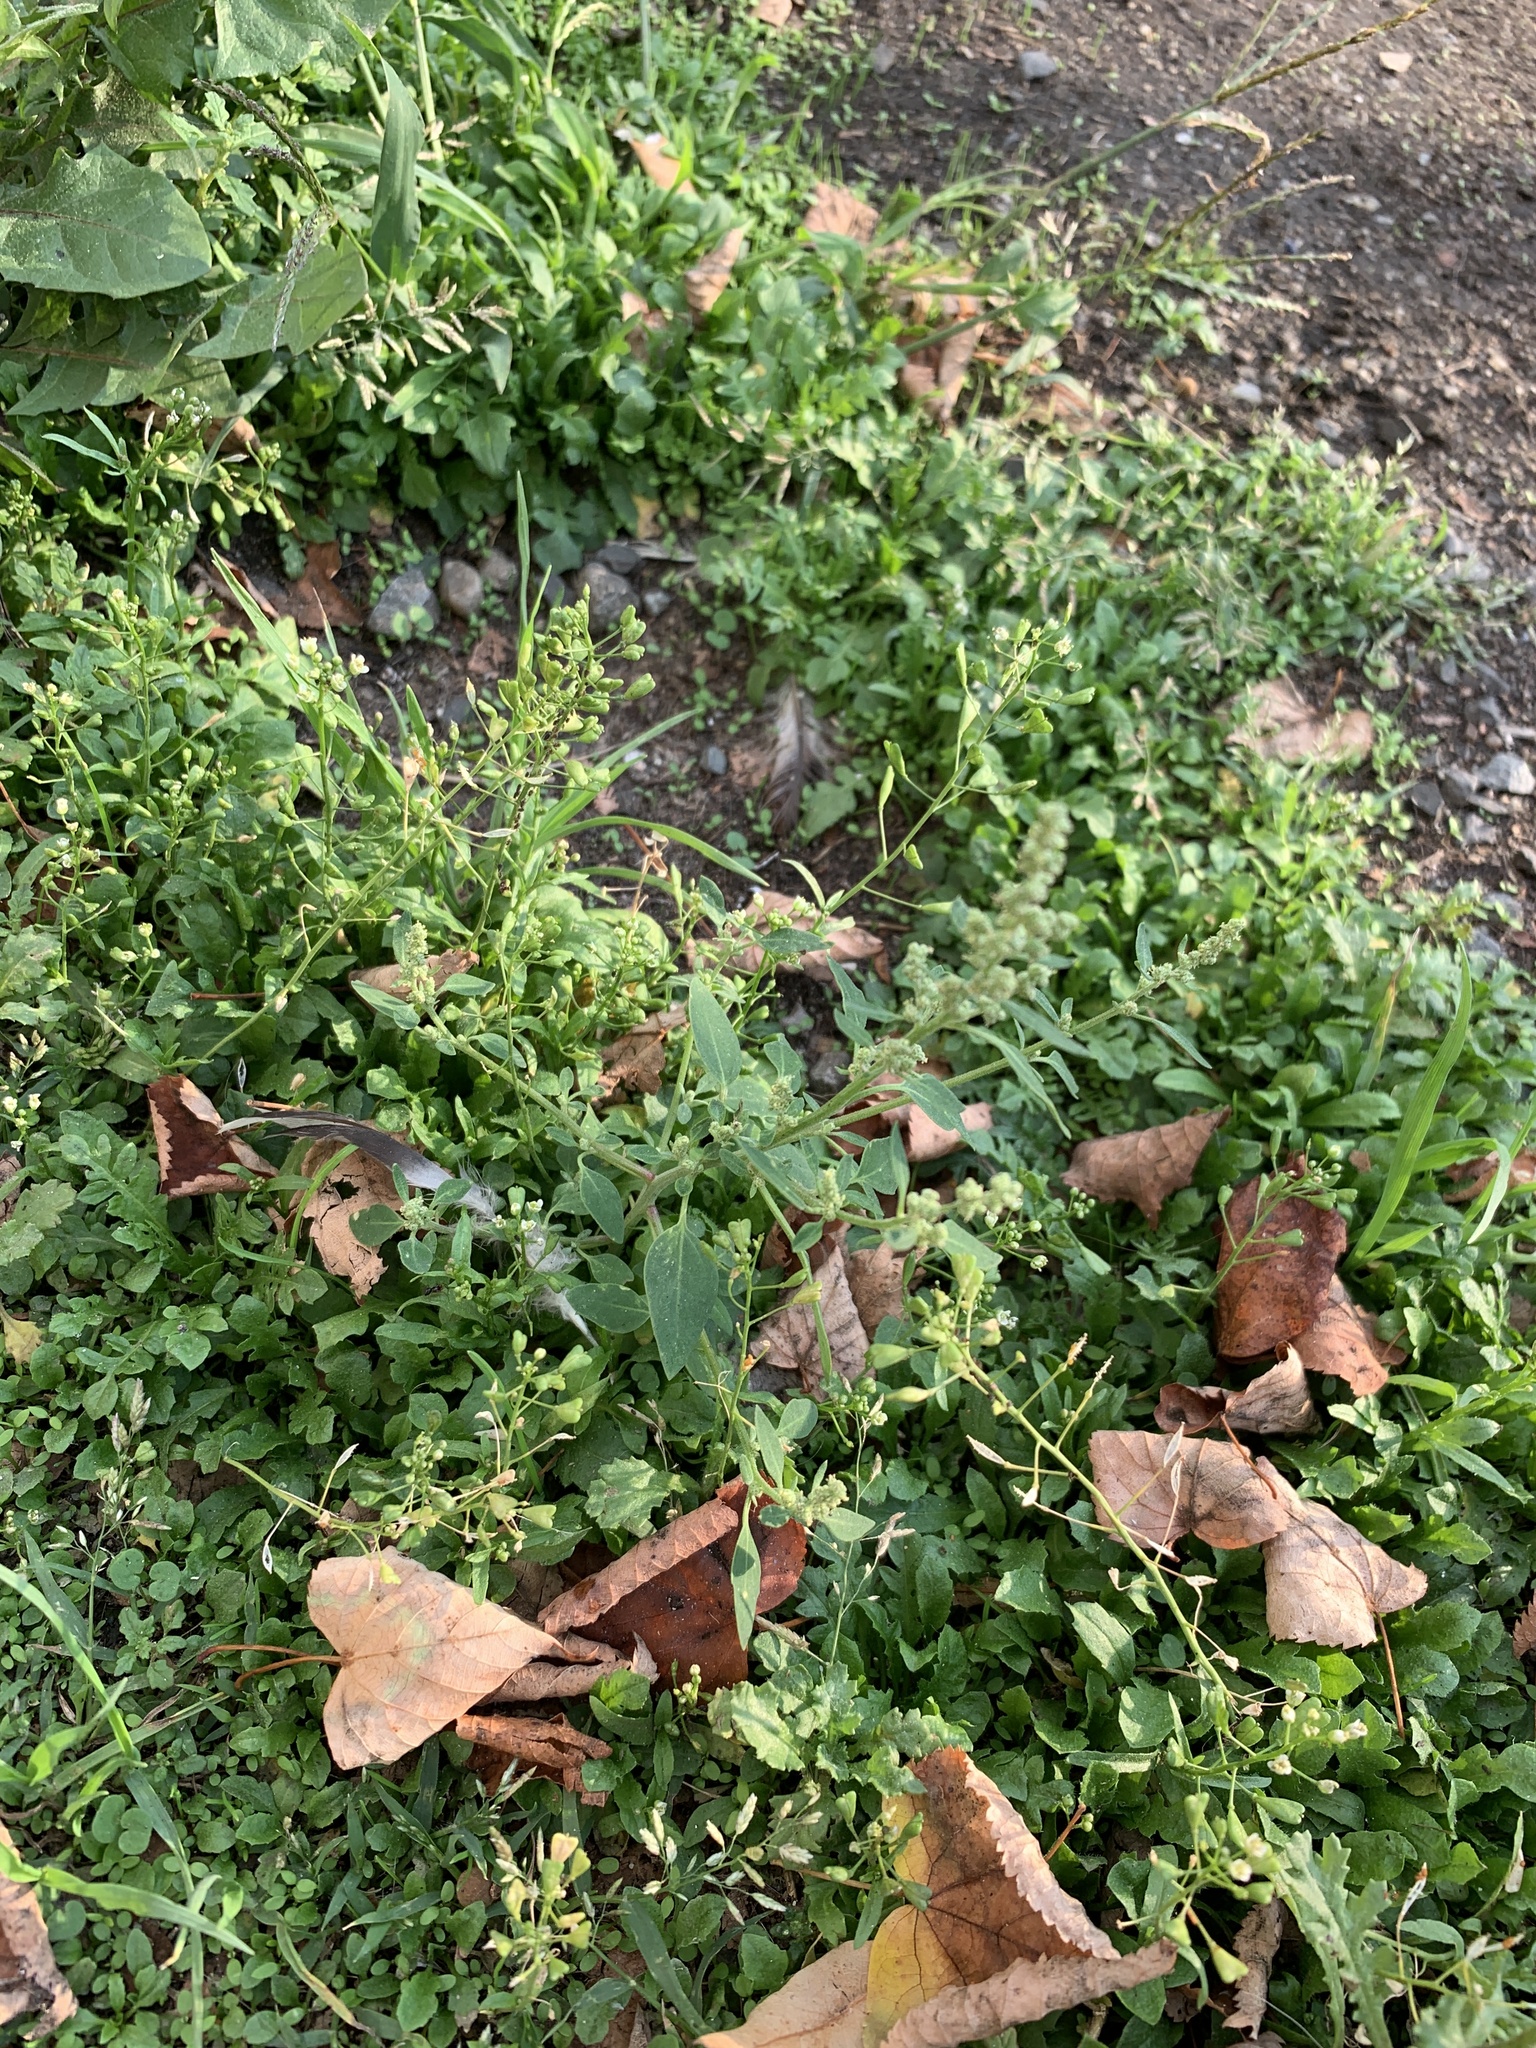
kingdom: Plantae
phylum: Tracheophyta
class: Magnoliopsida
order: Brassicales
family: Brassicaceae
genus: Capsella
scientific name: Capsella bursa-pastoris
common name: Shepherd's purse
